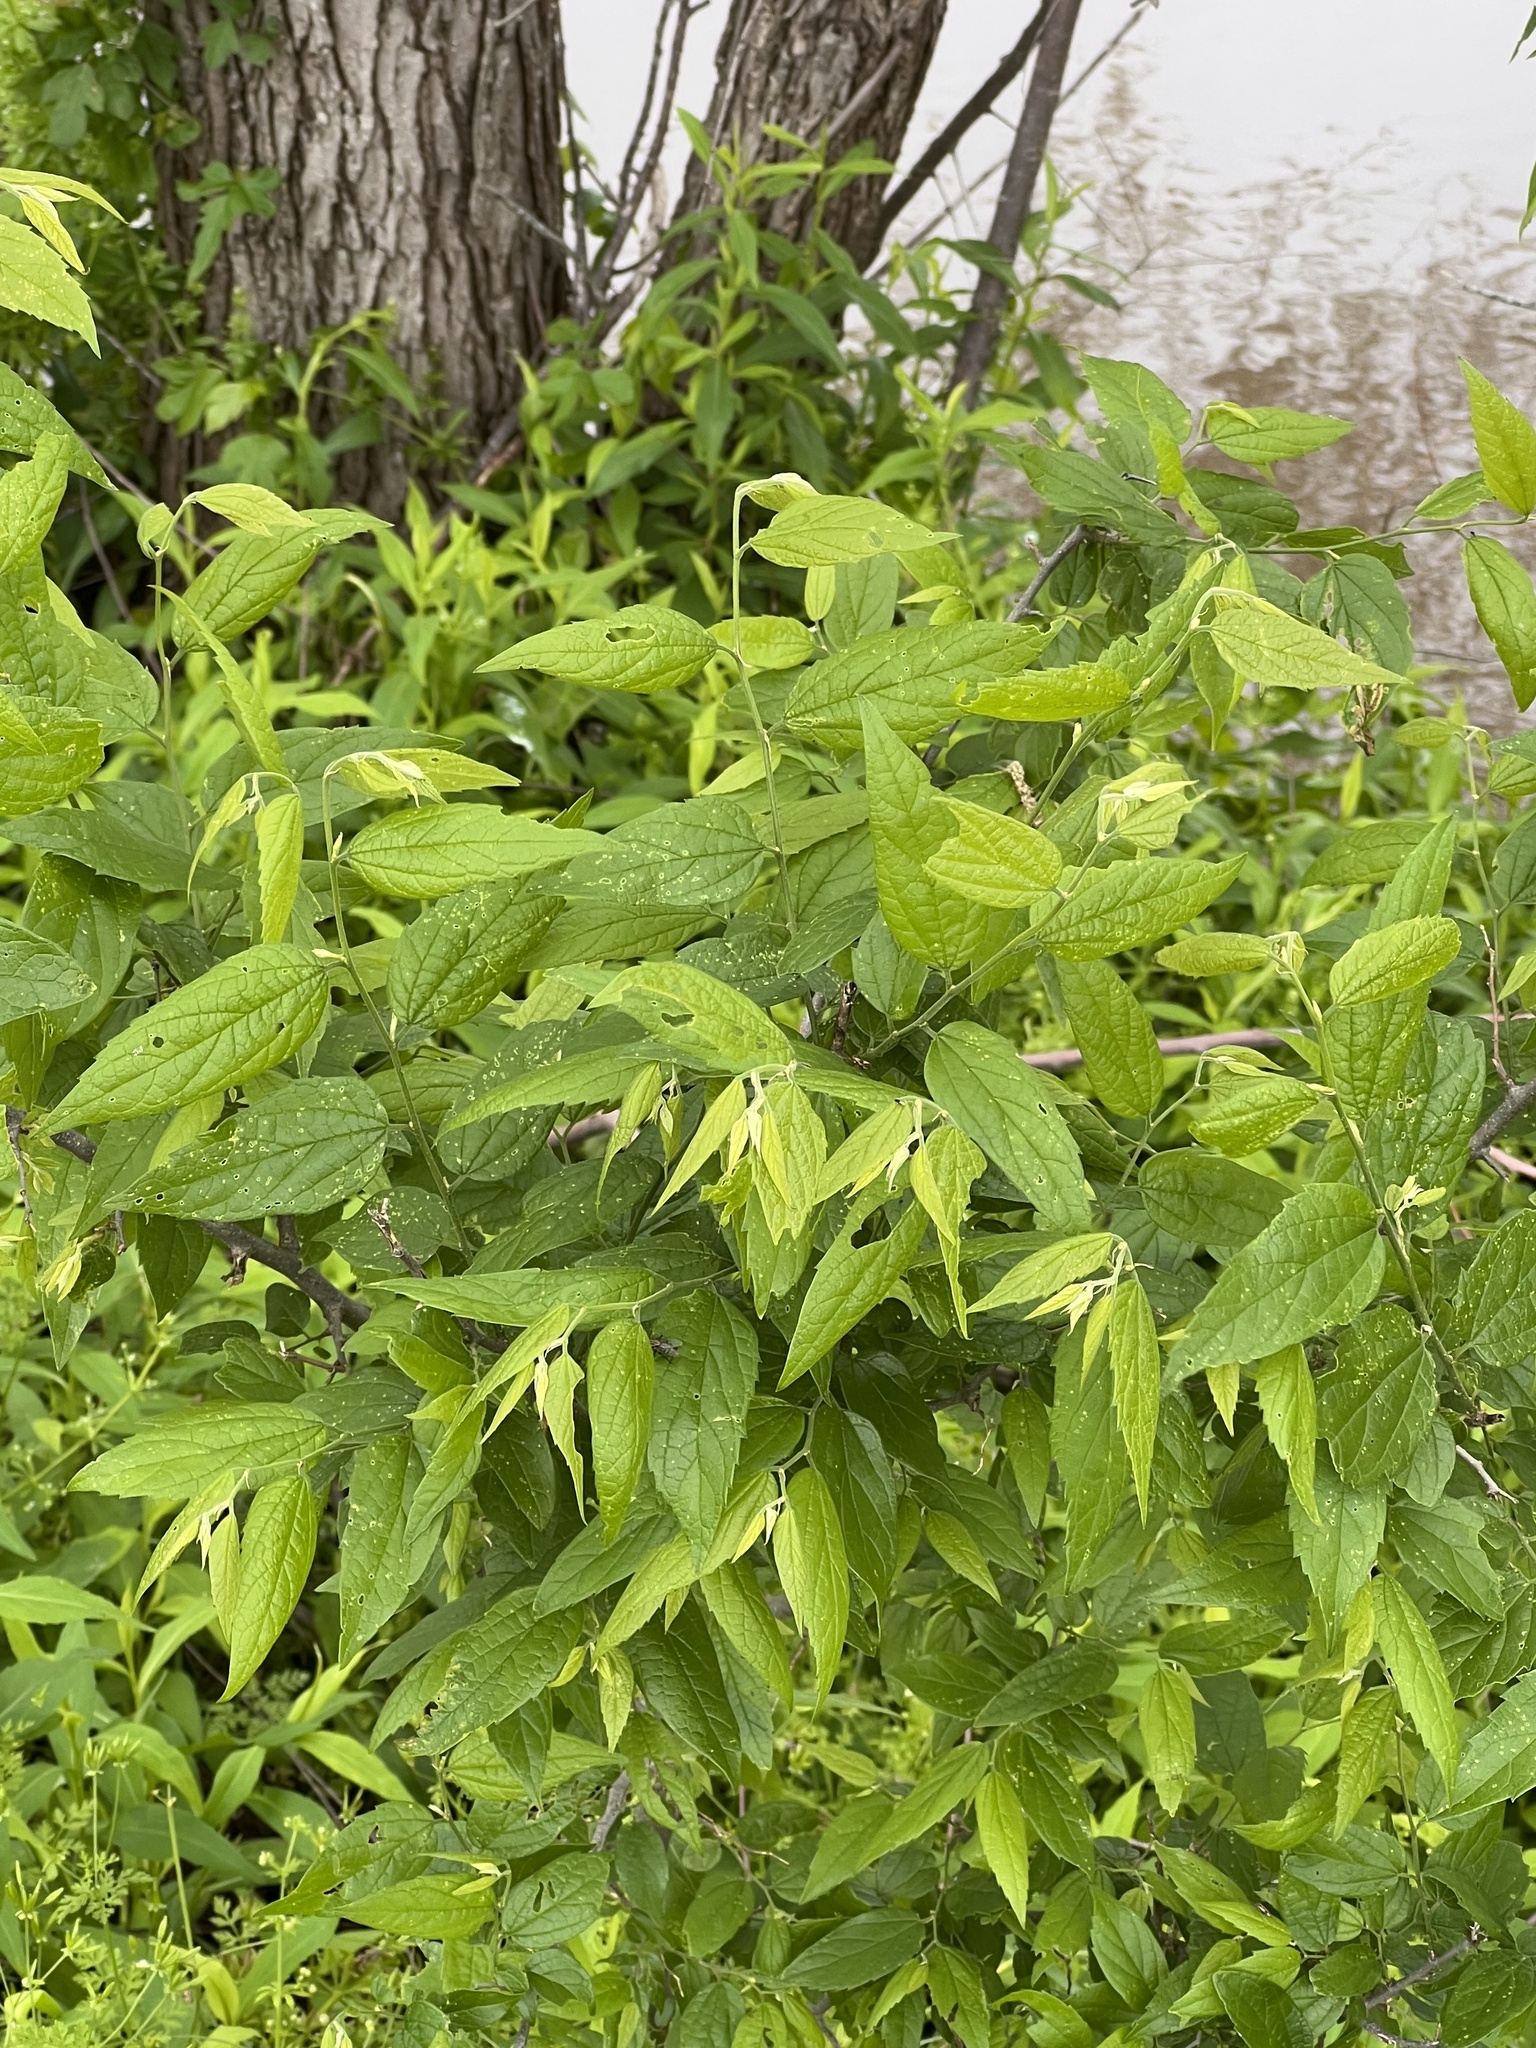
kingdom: Plantae
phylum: Tracheophyta
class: Magnoliopsida
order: Rosales
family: Cannabaceae
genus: Celtis
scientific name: Celtis laevigata
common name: Sugarberry
